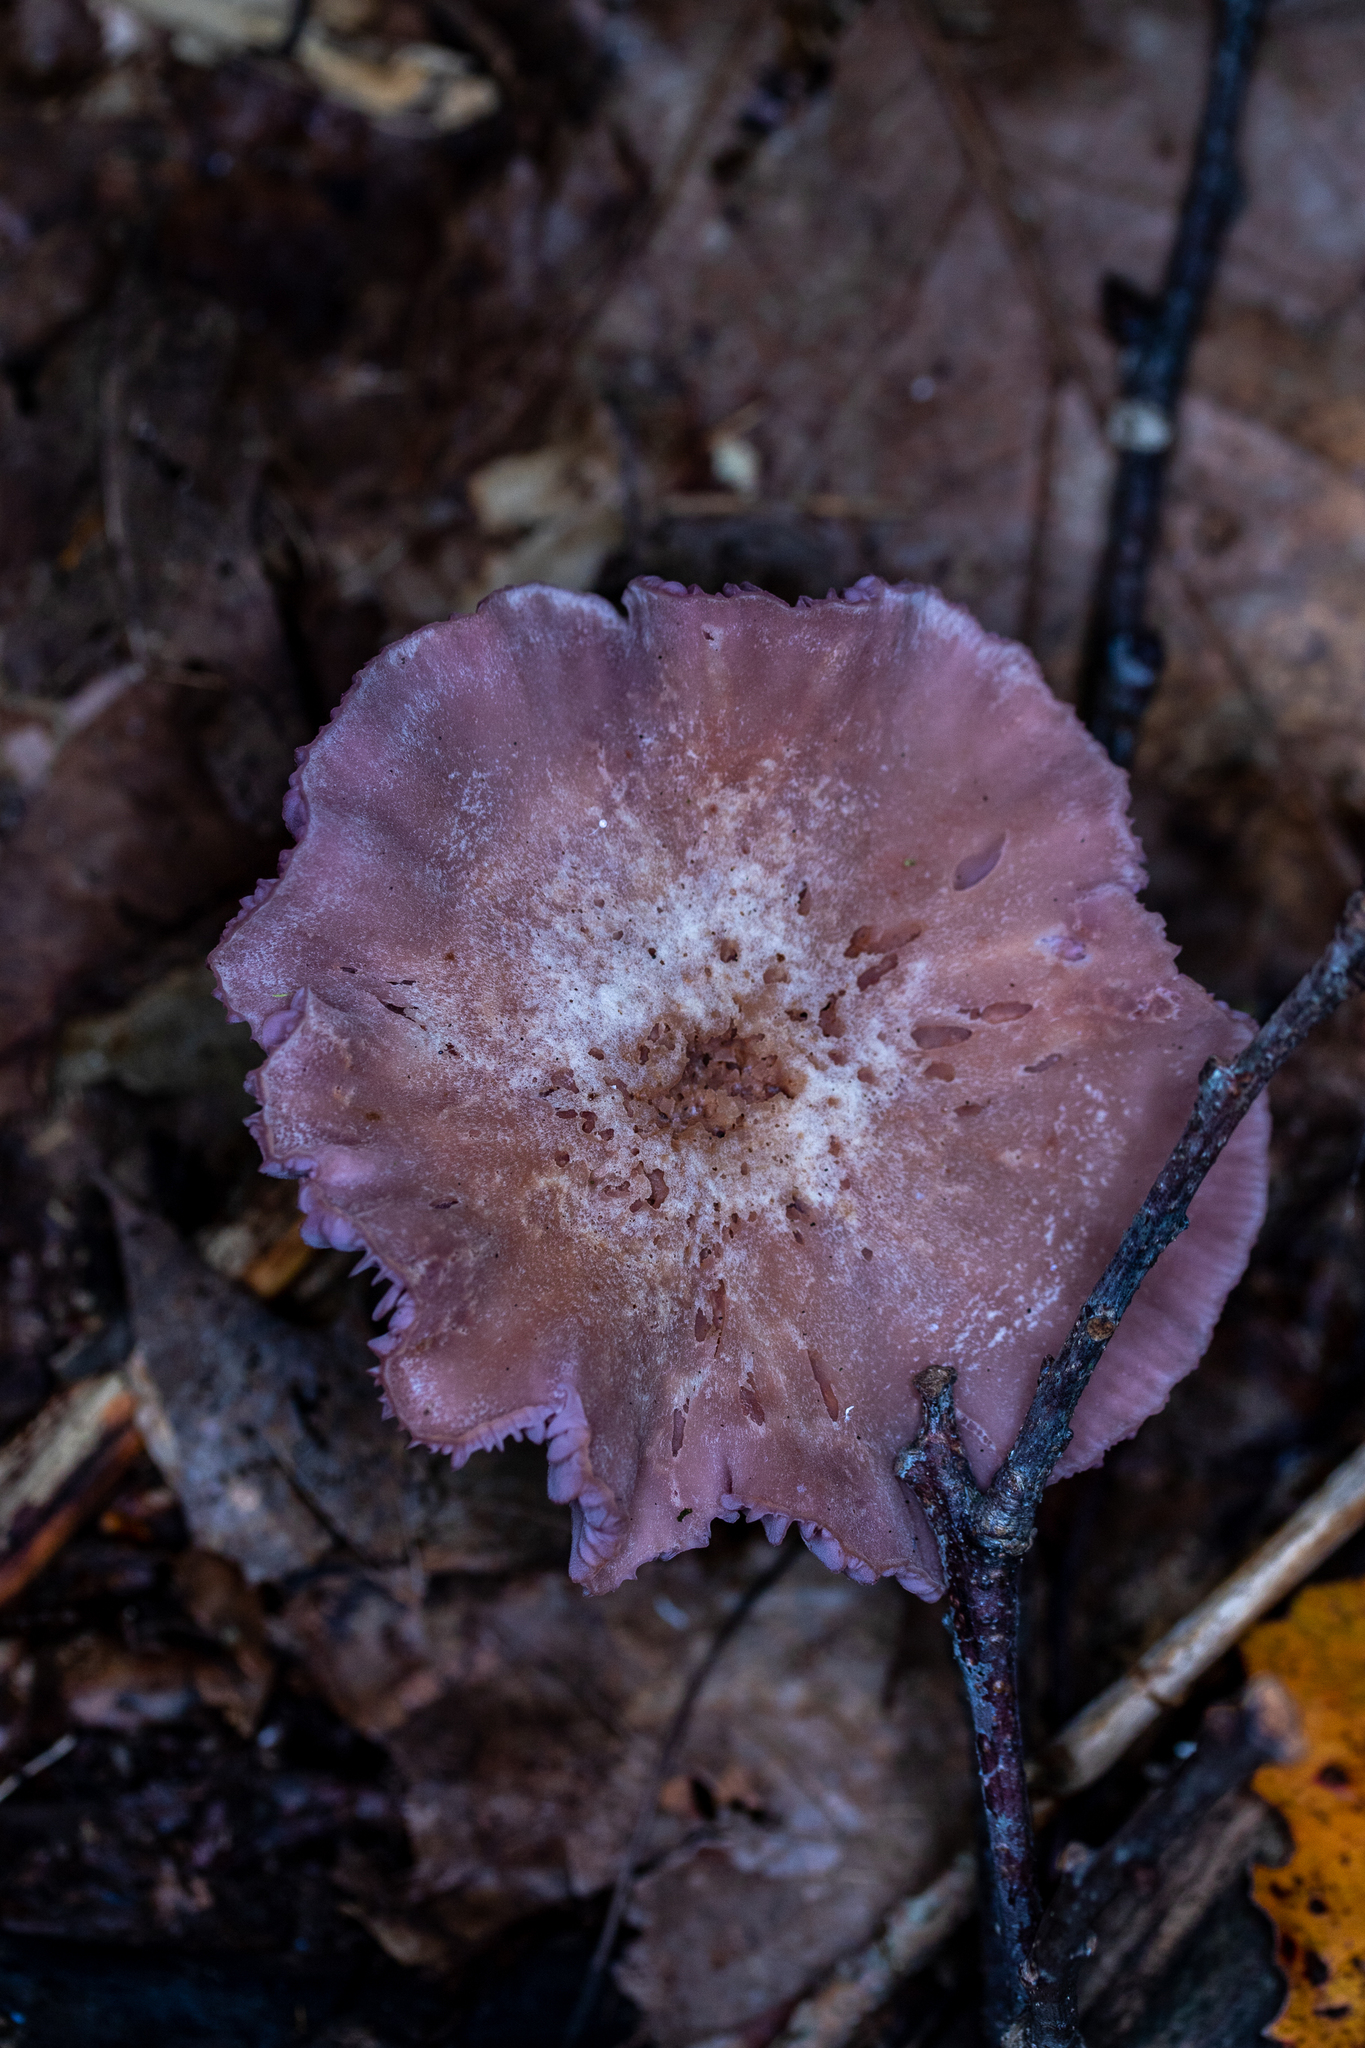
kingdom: Fungi
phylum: Basidiomycota
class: Agaricomycetes
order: Agaricales
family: Hydnangiaceae
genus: Laccaria
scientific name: Laccaria ochropurpurea
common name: Purple laccaria
